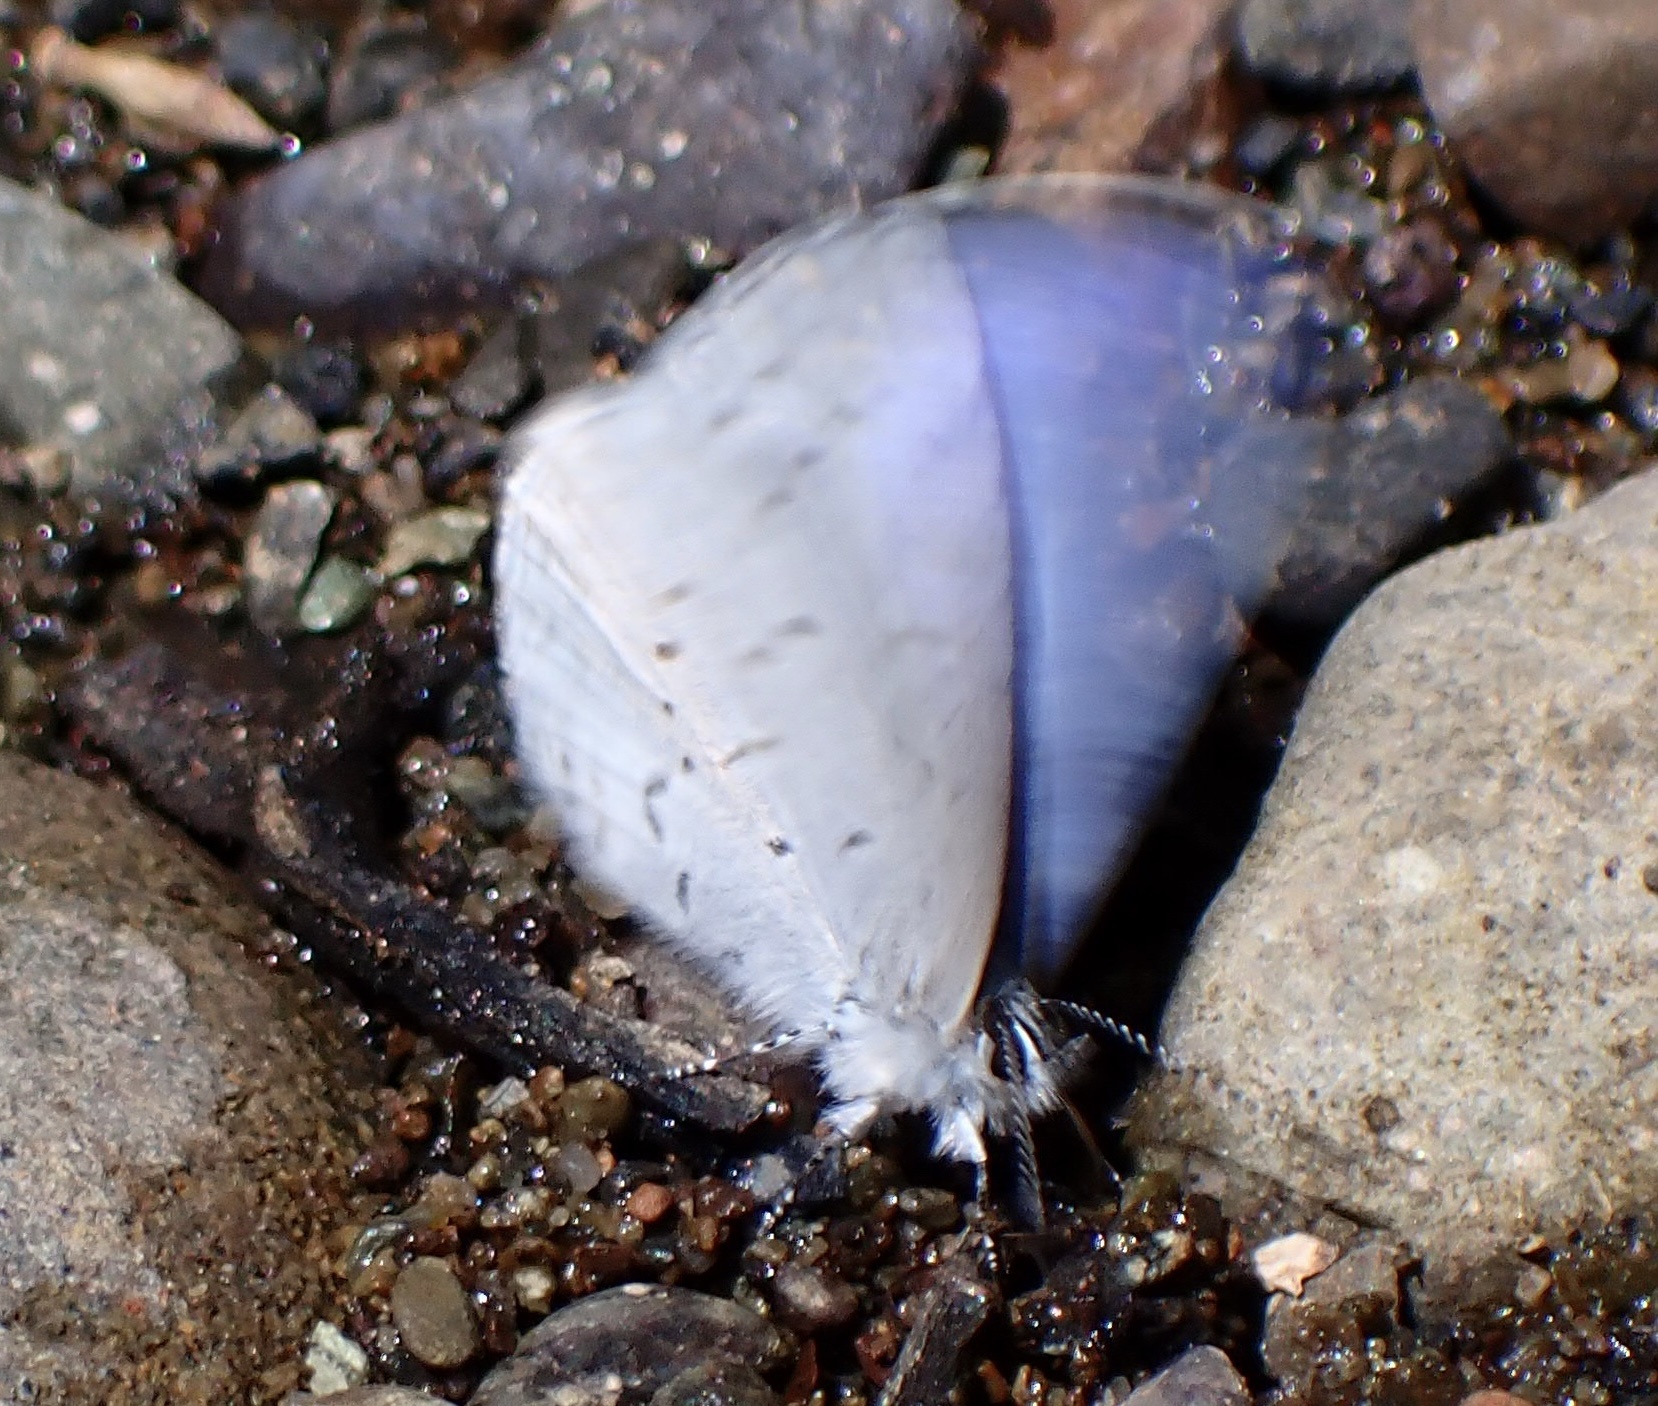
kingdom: Animalia
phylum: Arthropoda
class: Insecta
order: Lepidoptera
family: Lycaenidae
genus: Celastrina
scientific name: Celastrina ladon
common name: Spring azure
